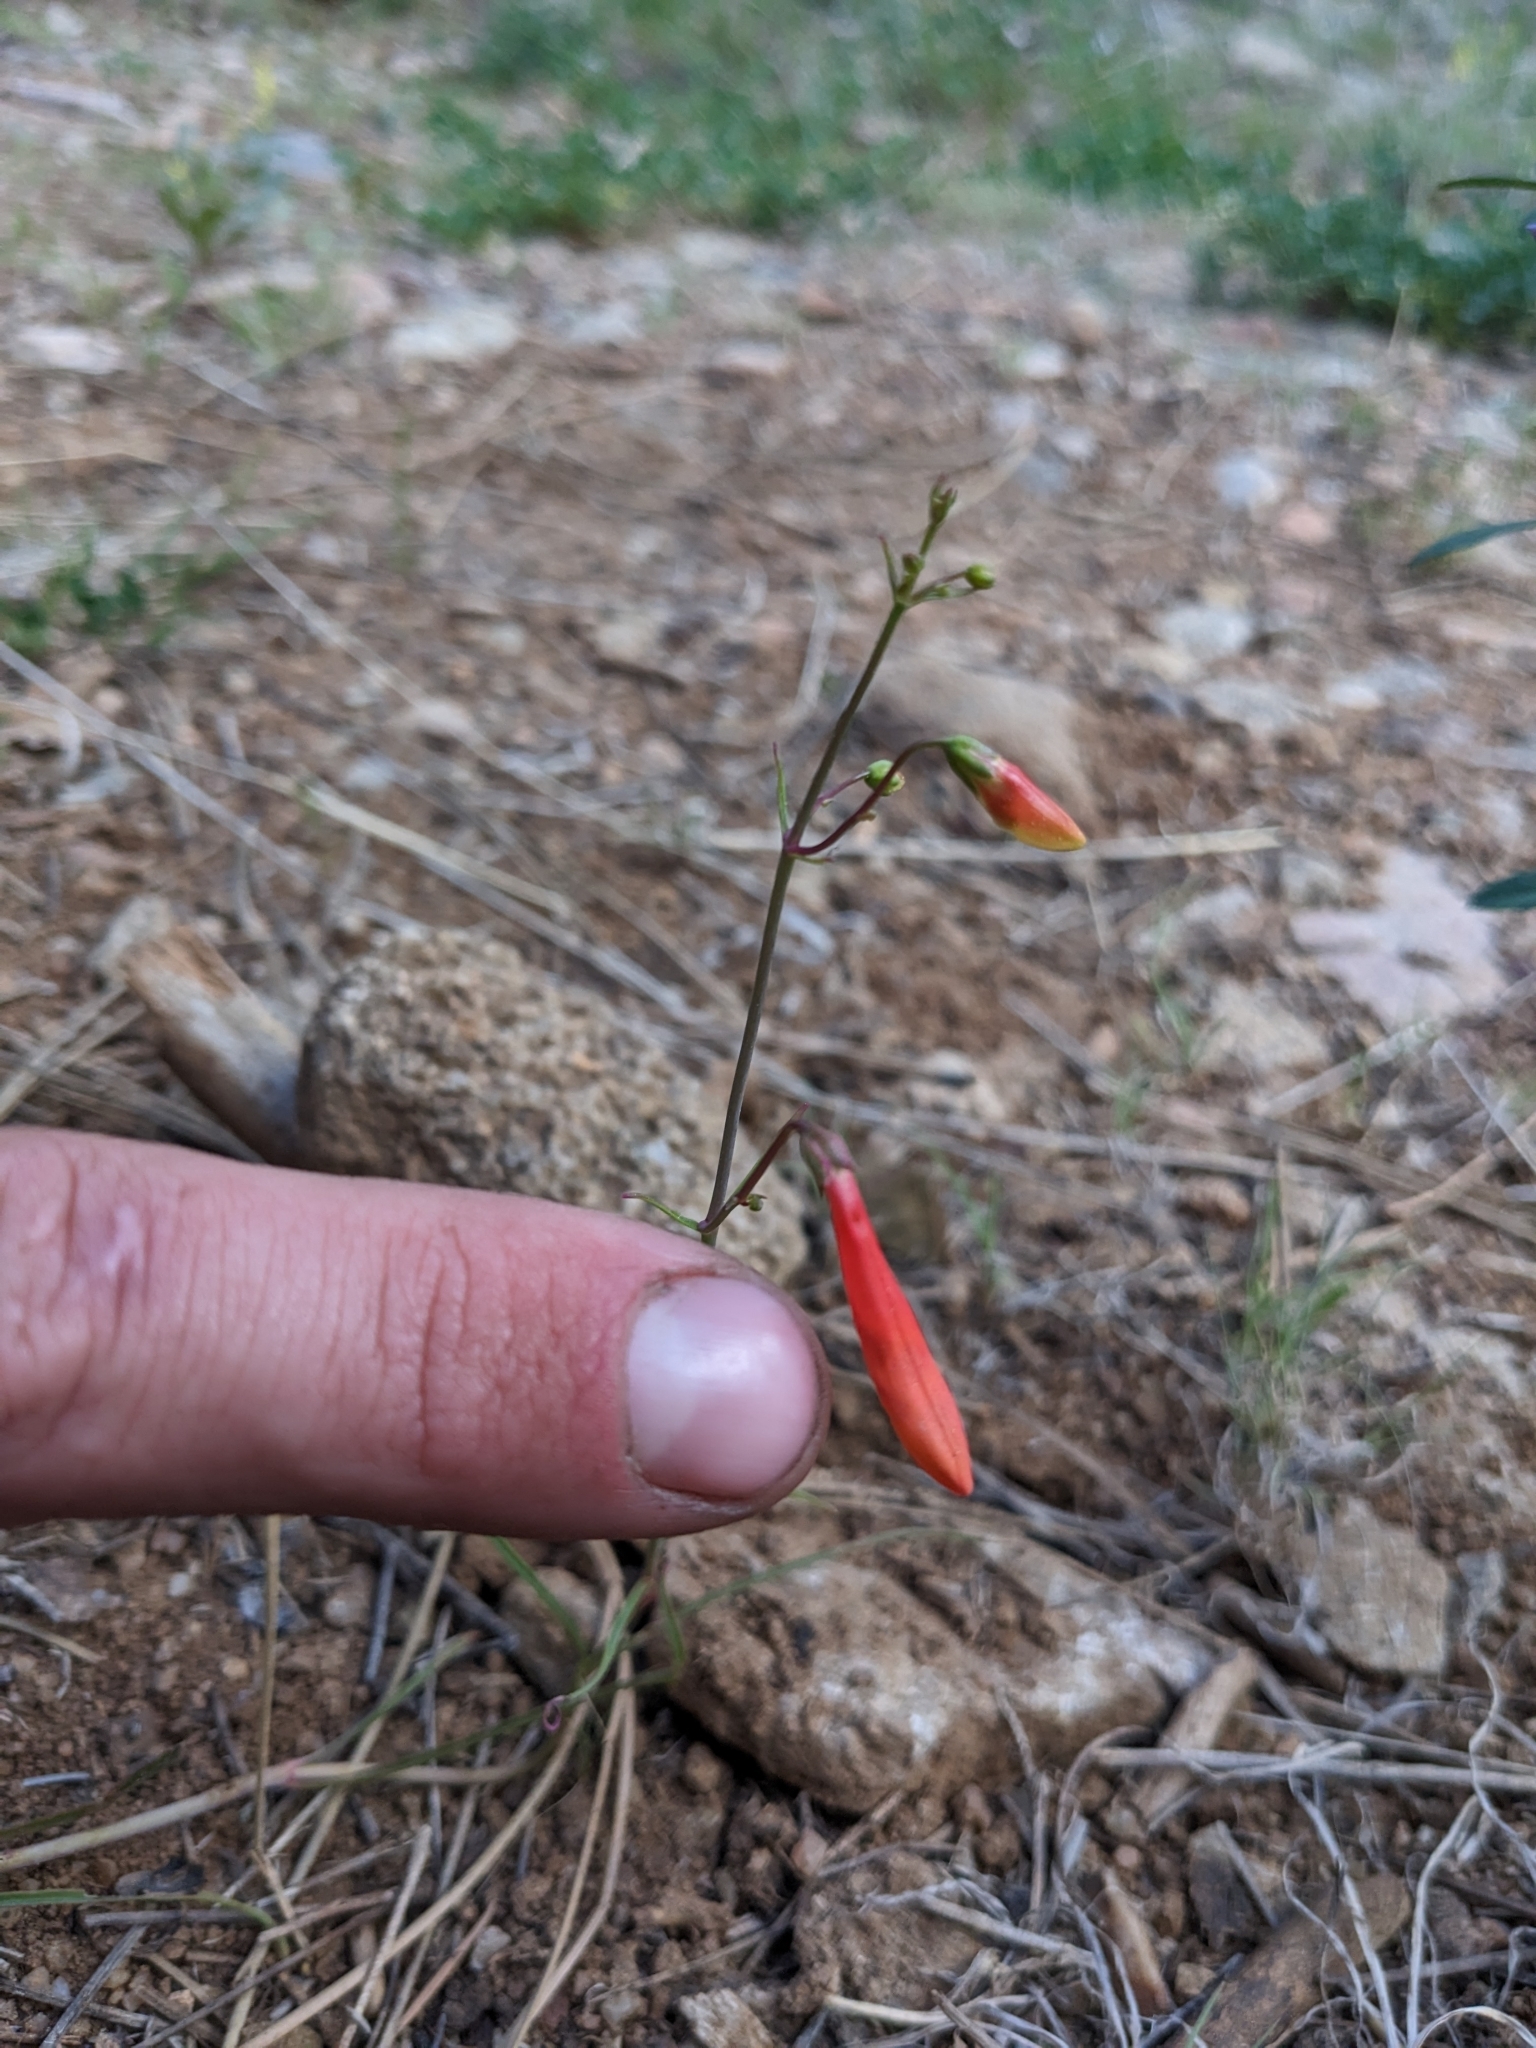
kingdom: Plantae
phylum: Tracheophyta
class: Magnoliopsida
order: Lamiales
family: Plantaginaceae
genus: Penstemon
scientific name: Penstemon barbatus
